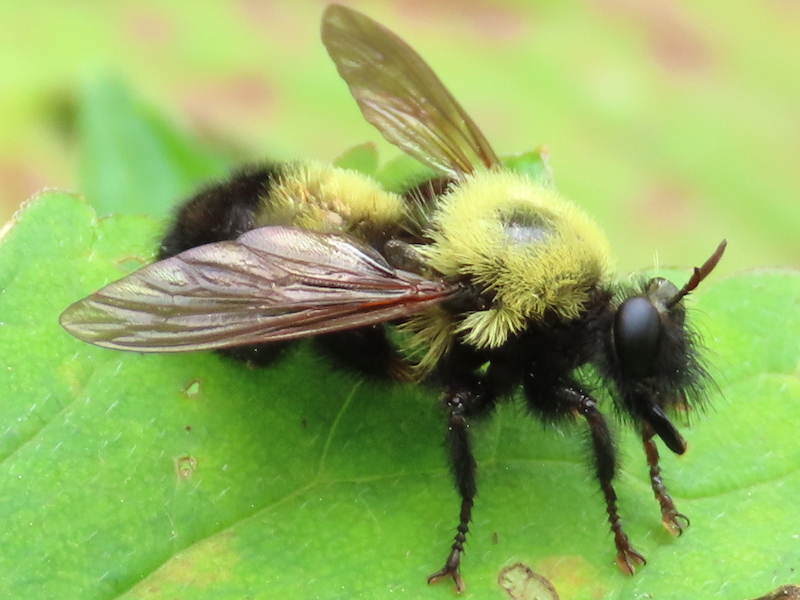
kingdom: Animalia
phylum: Arthropoda
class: Insecta
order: Diptera
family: Asilidae
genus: Laphria
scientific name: Laphria thoracica
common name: Bumble bee mimic robber fly
